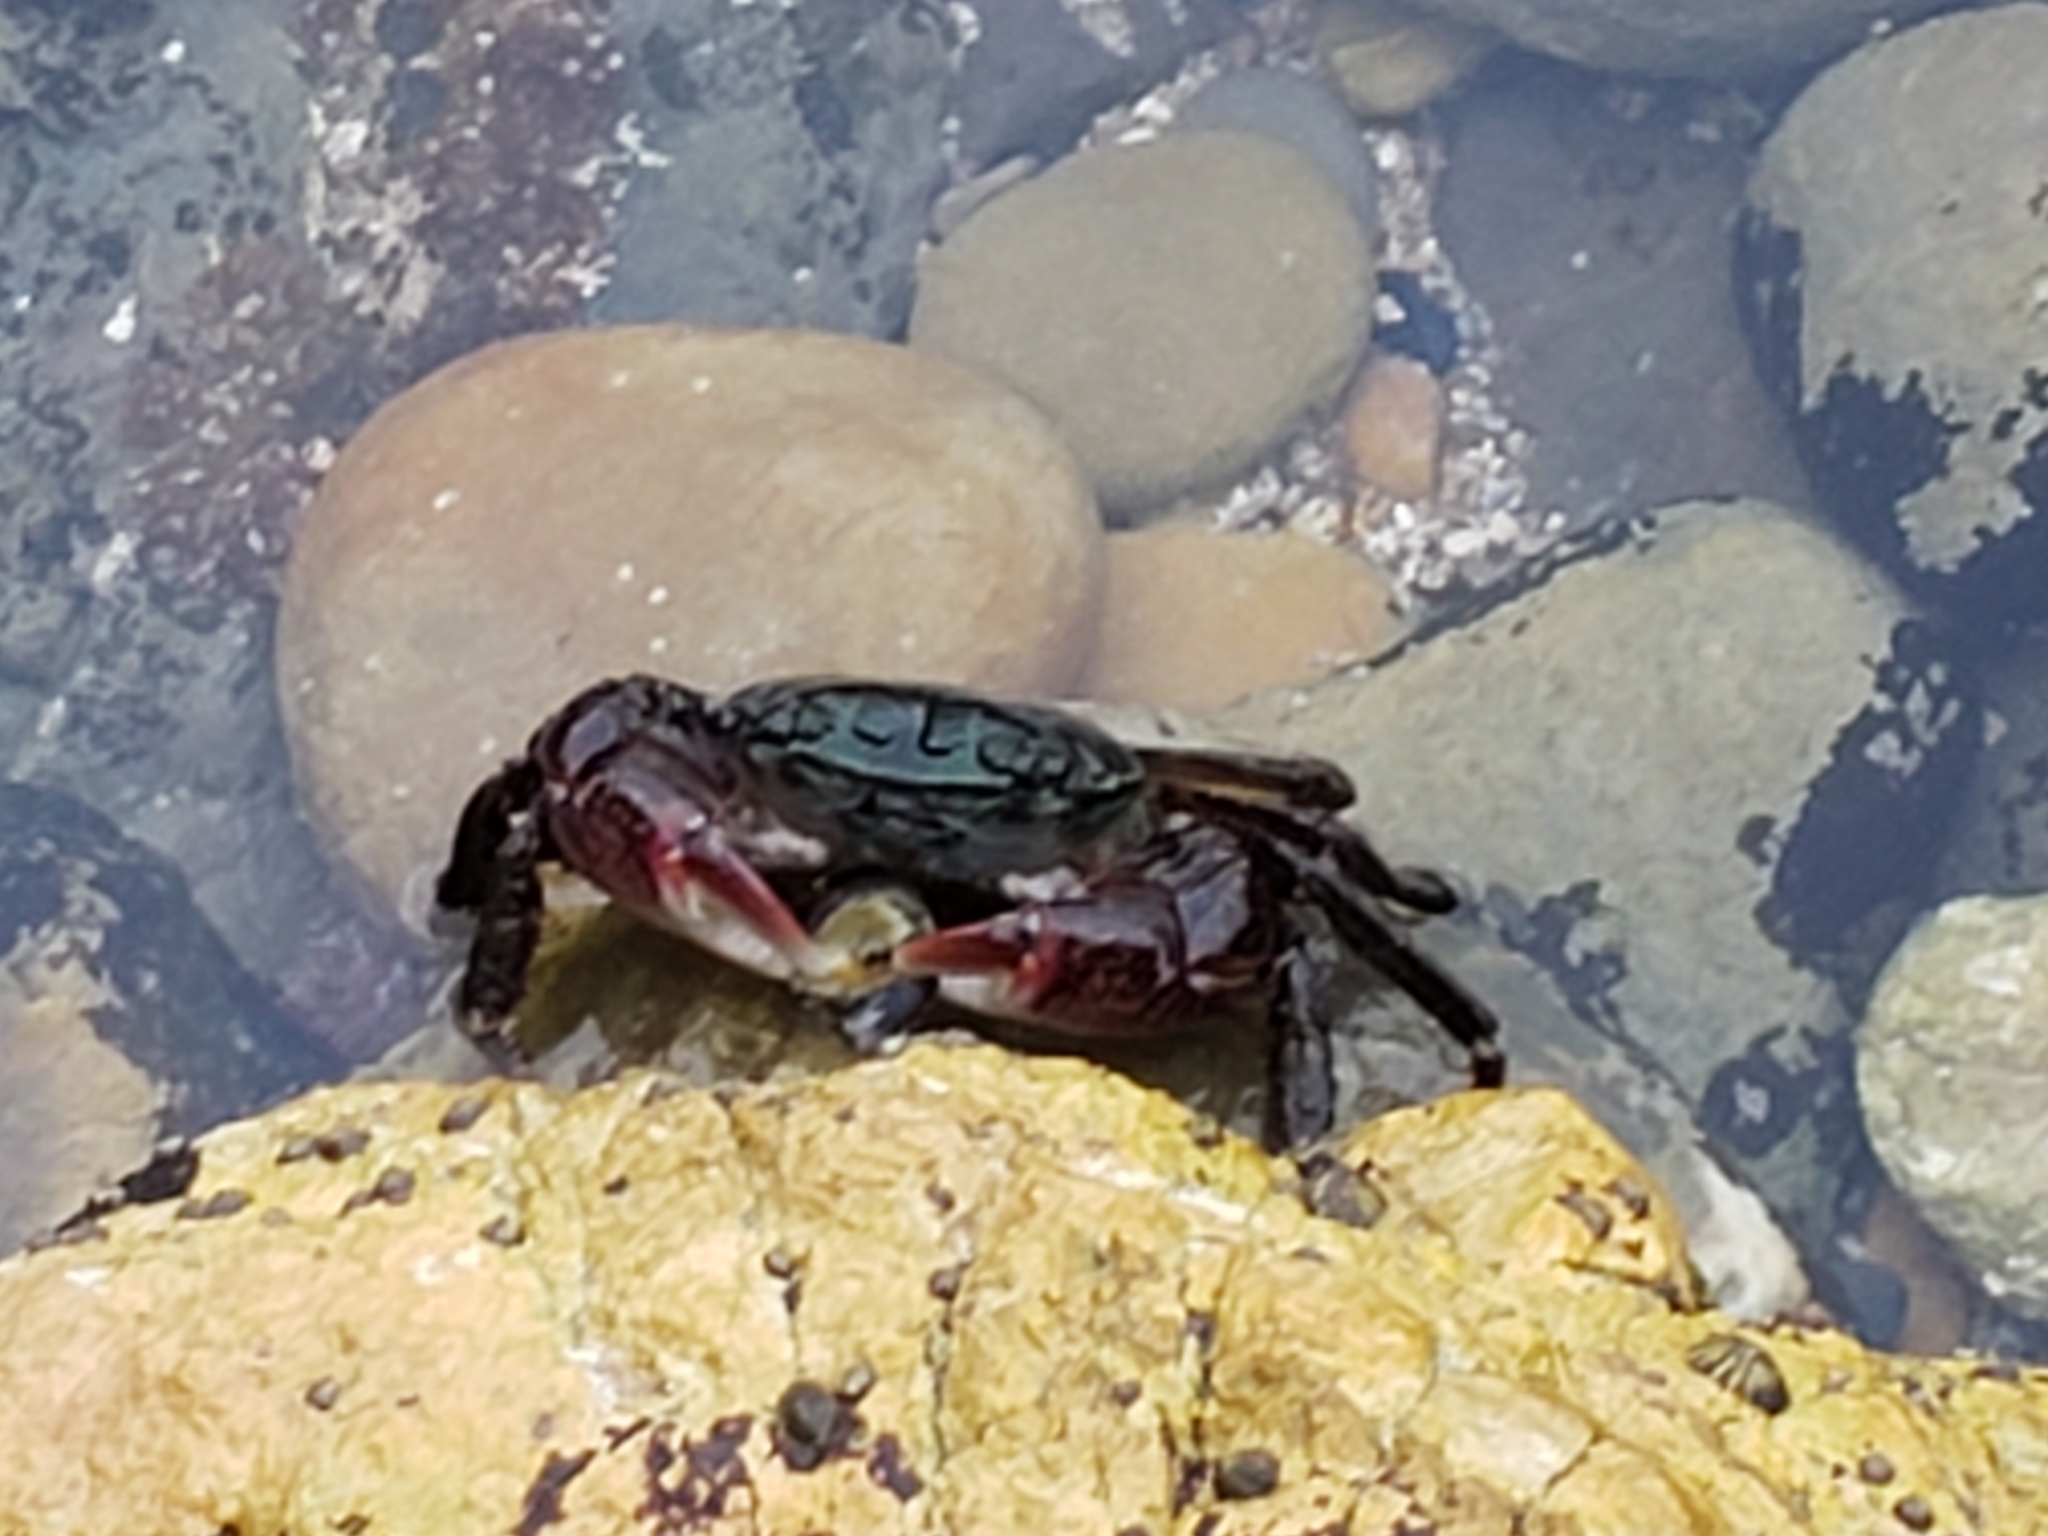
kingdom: Animalia
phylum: Arthropoda
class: Malacostraca
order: Decapoda
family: Grapsidae
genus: Pachygrapsus
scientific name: Pachygrapsus crassipes
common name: Striped shore crab
